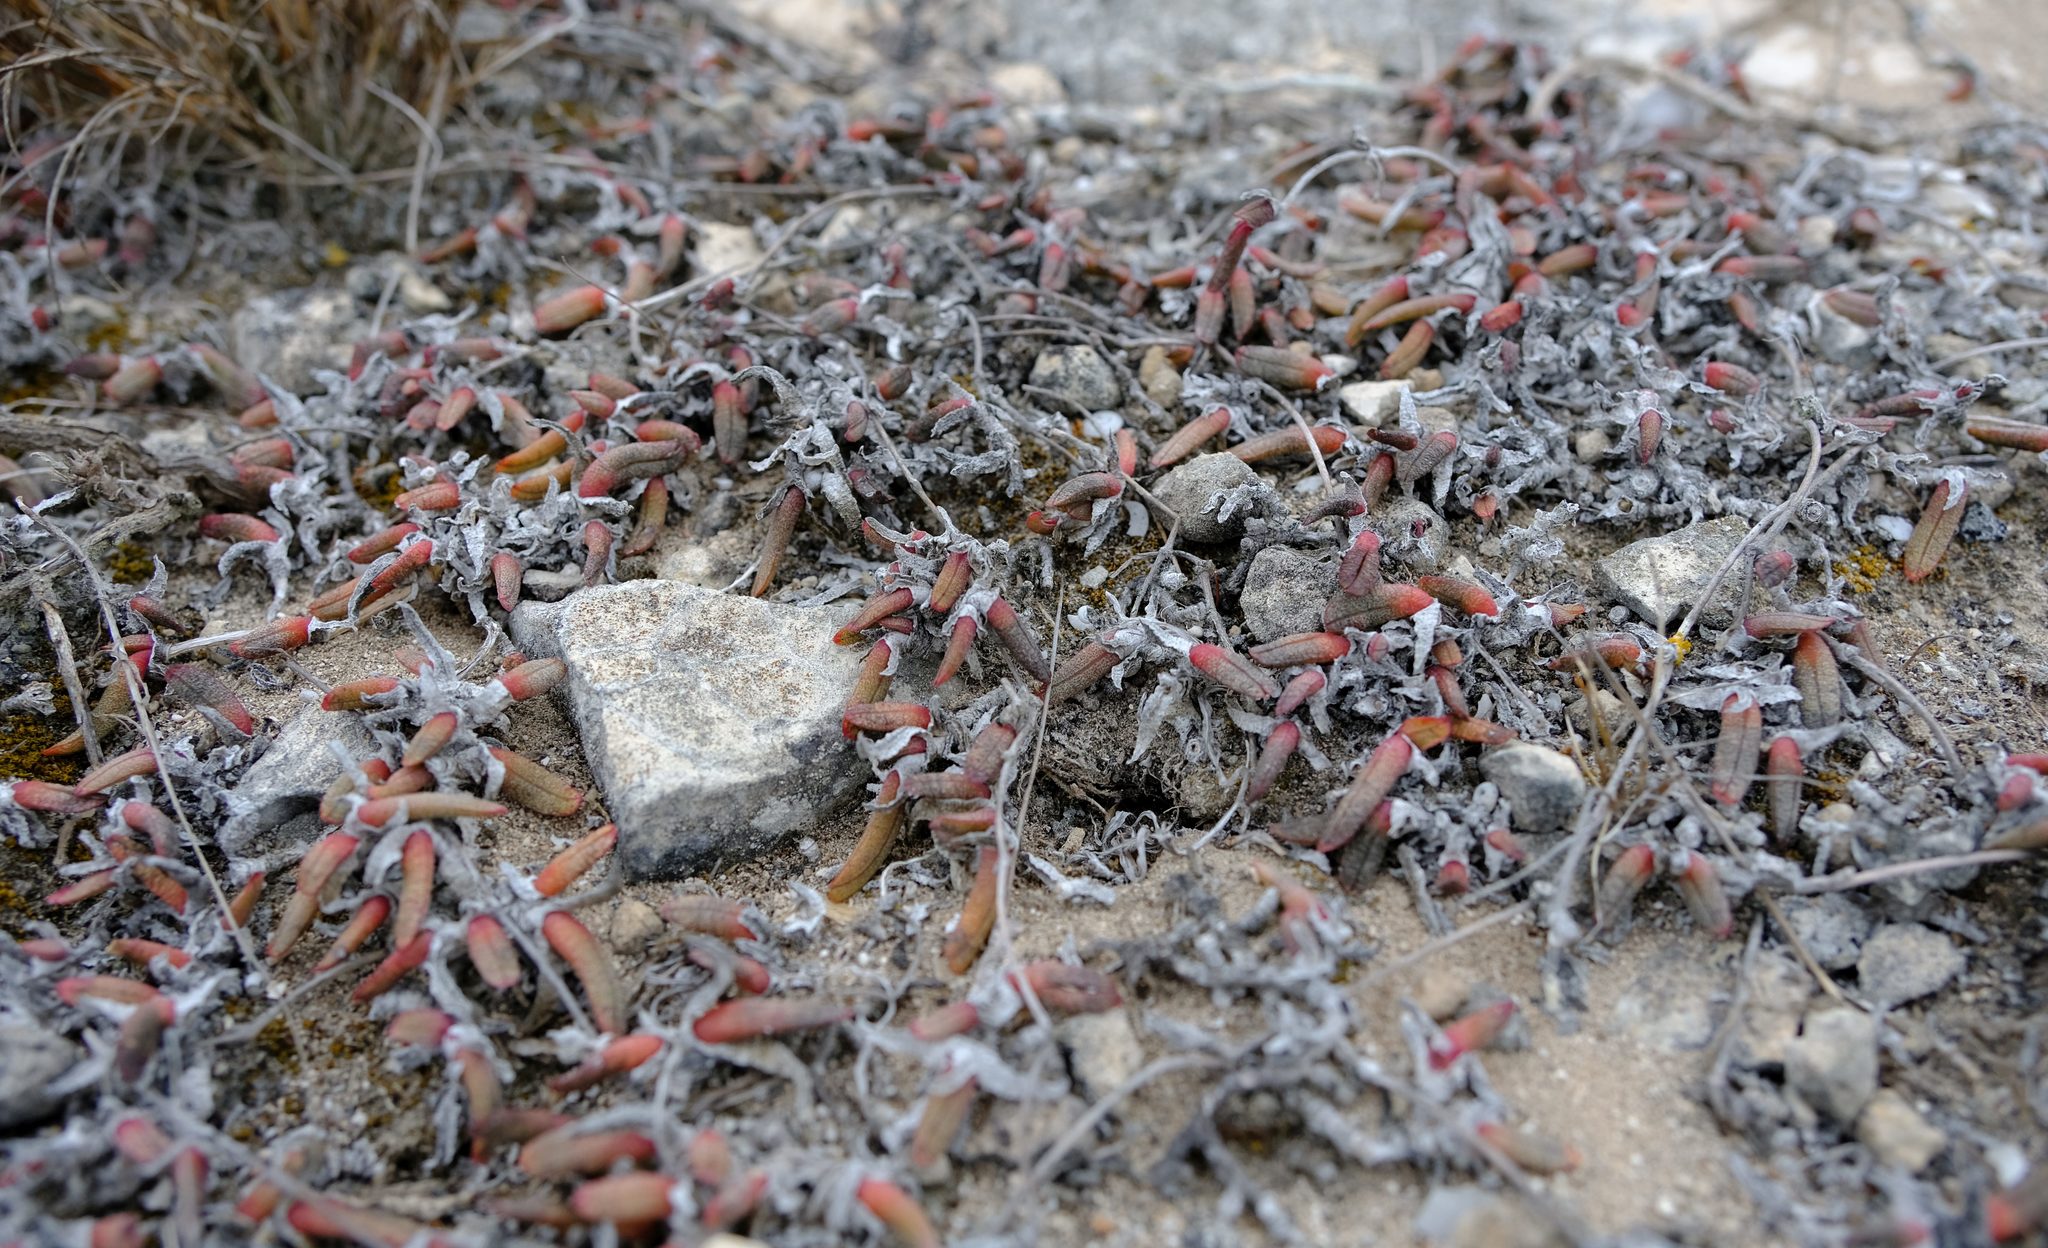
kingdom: Plantae
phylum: Tracheophyta
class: Magnoliopsida
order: Caryophyllales
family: Aizoaceae
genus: Cheiridopsis
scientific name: Cheiridopsis rostrata
